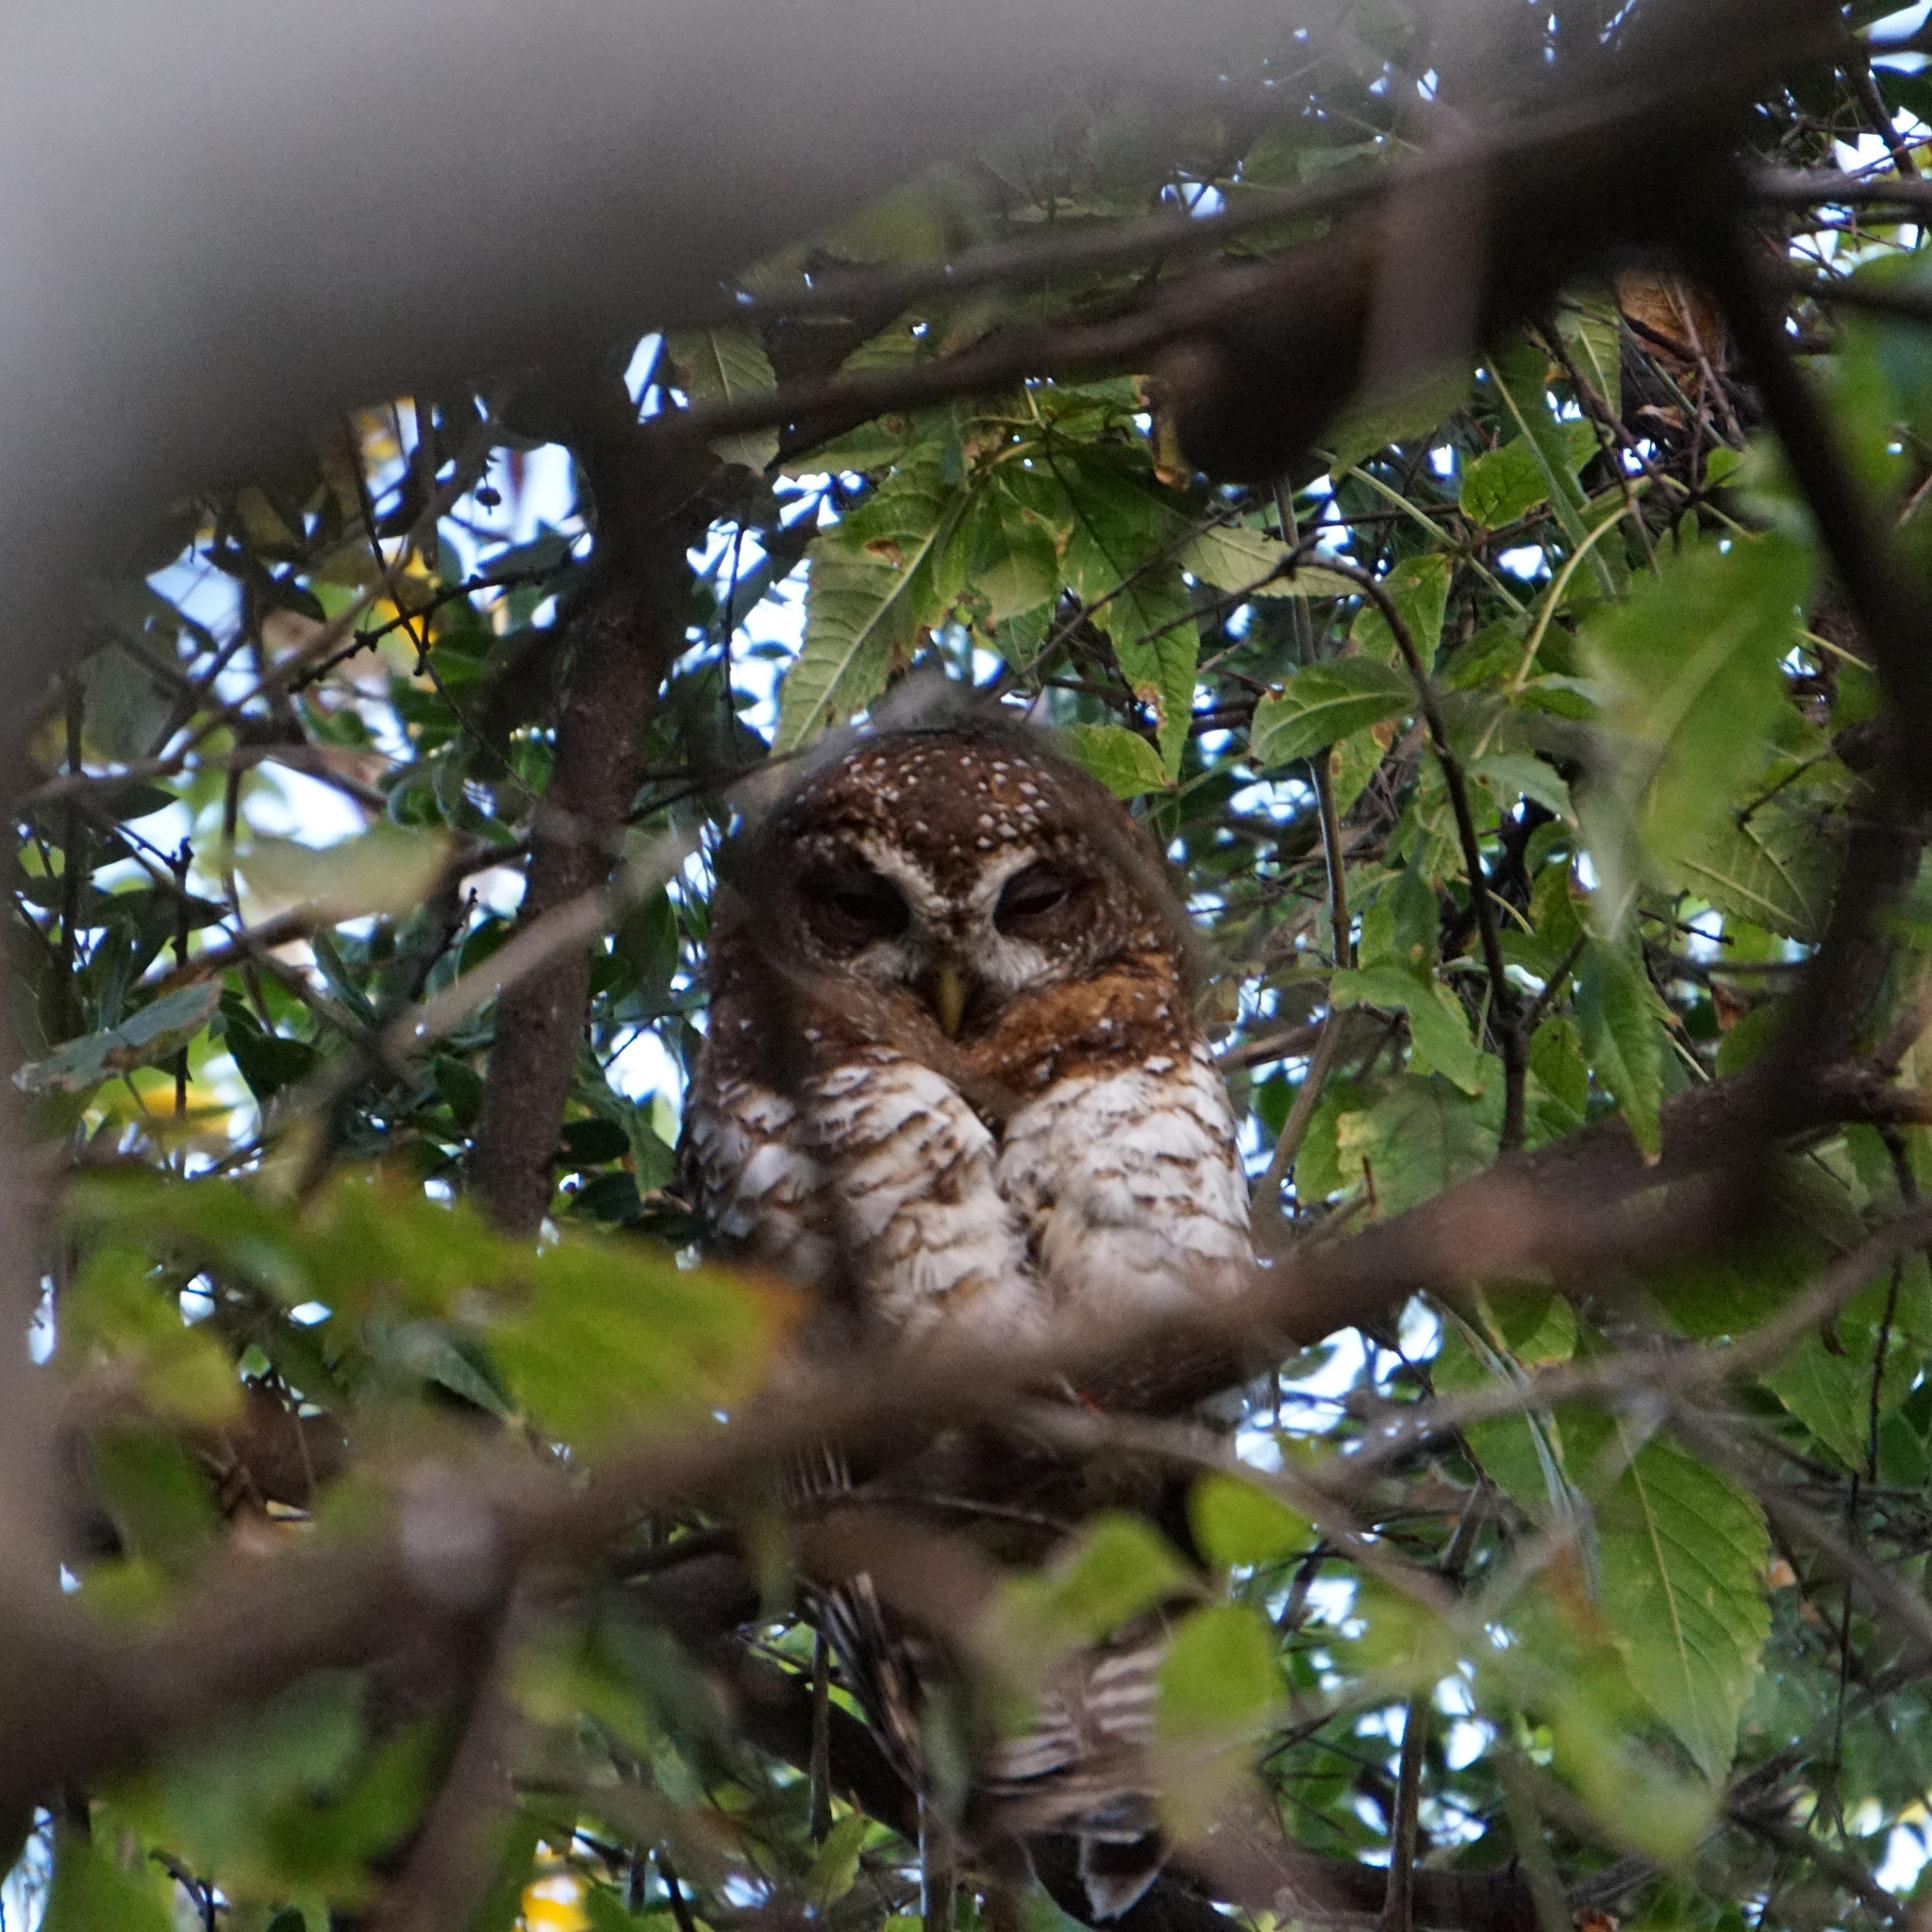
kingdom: Animalia
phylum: Chordata
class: Aves
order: Strigiformes
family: Strigidae
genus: Strix
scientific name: Strix woodfordii
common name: African wood owl
